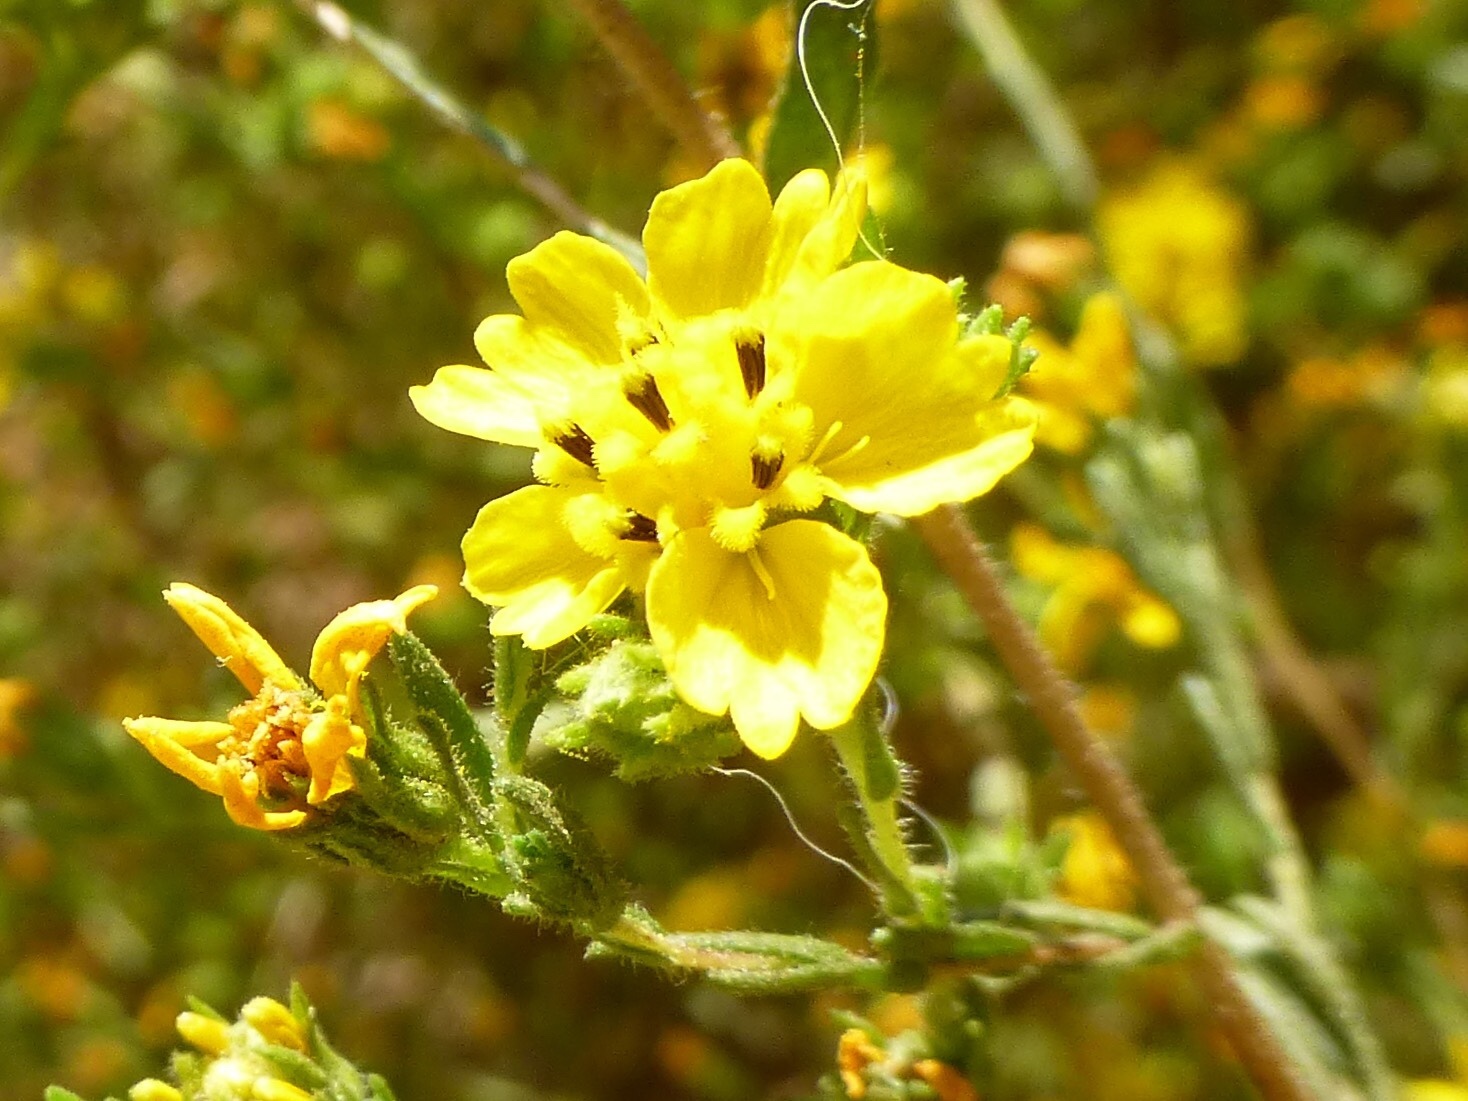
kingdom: Plantae
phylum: Tracheophyta
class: Magnoliopsida
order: Asterales
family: Asteraceae
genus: Deinandra
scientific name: Deinandra fasciculata
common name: Clustered tarweed
